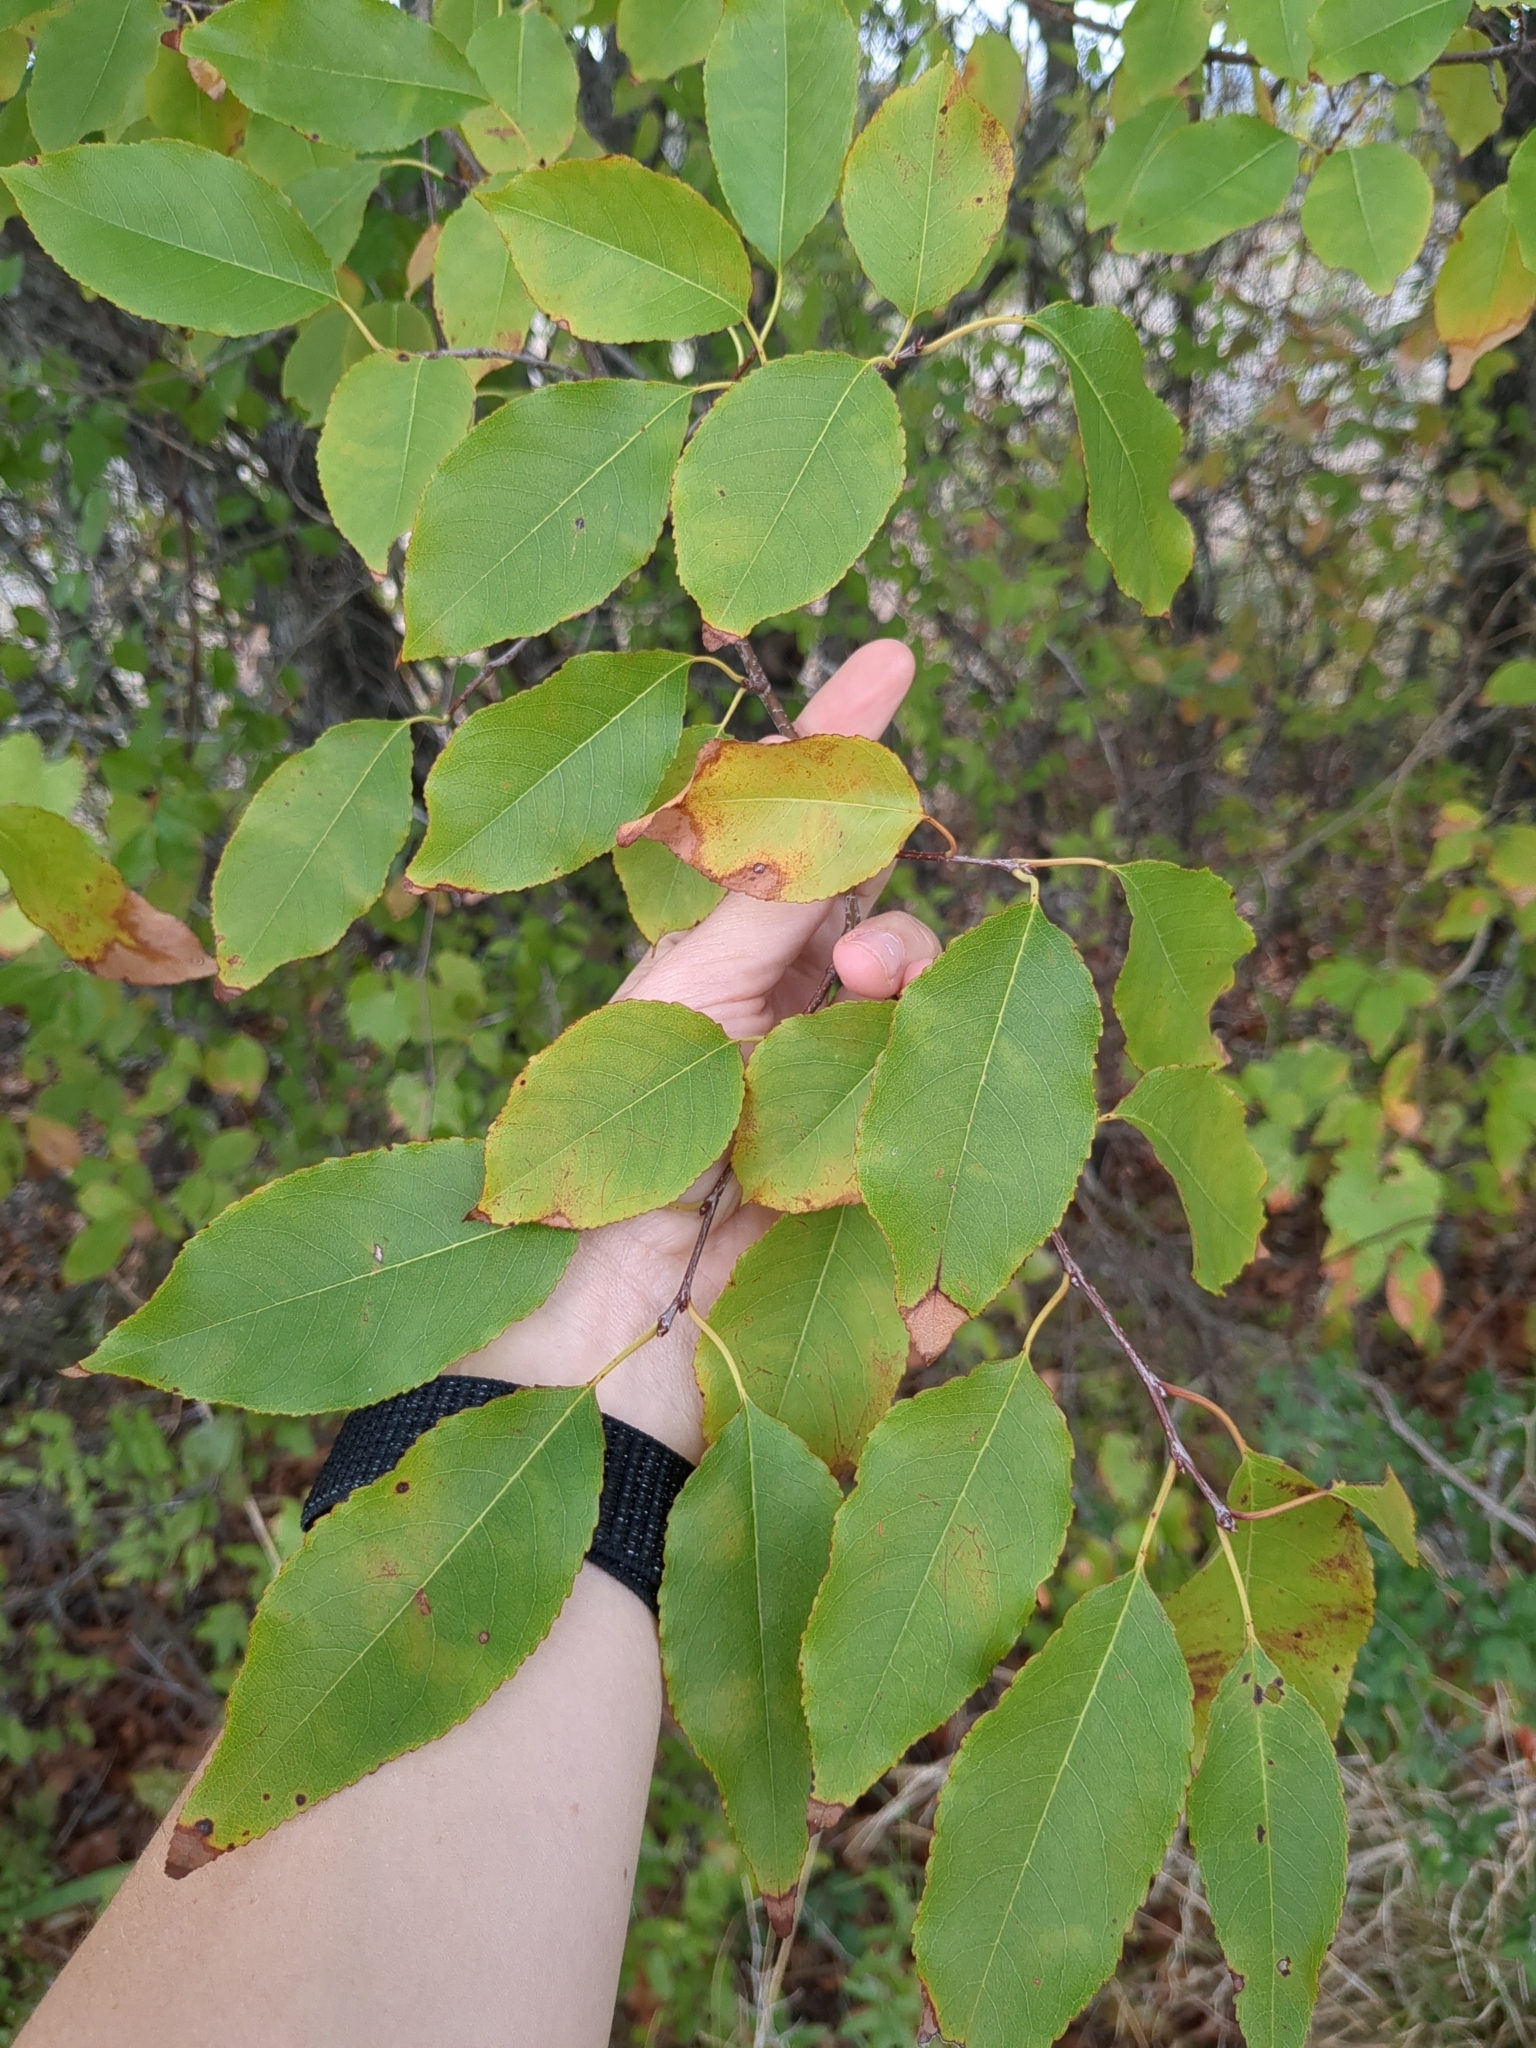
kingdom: Plantae
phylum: Tracheophyta
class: Magnoliopsida
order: Rosales
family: Rosaceae
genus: Prunus
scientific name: Prunus serotina
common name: Black cherry
